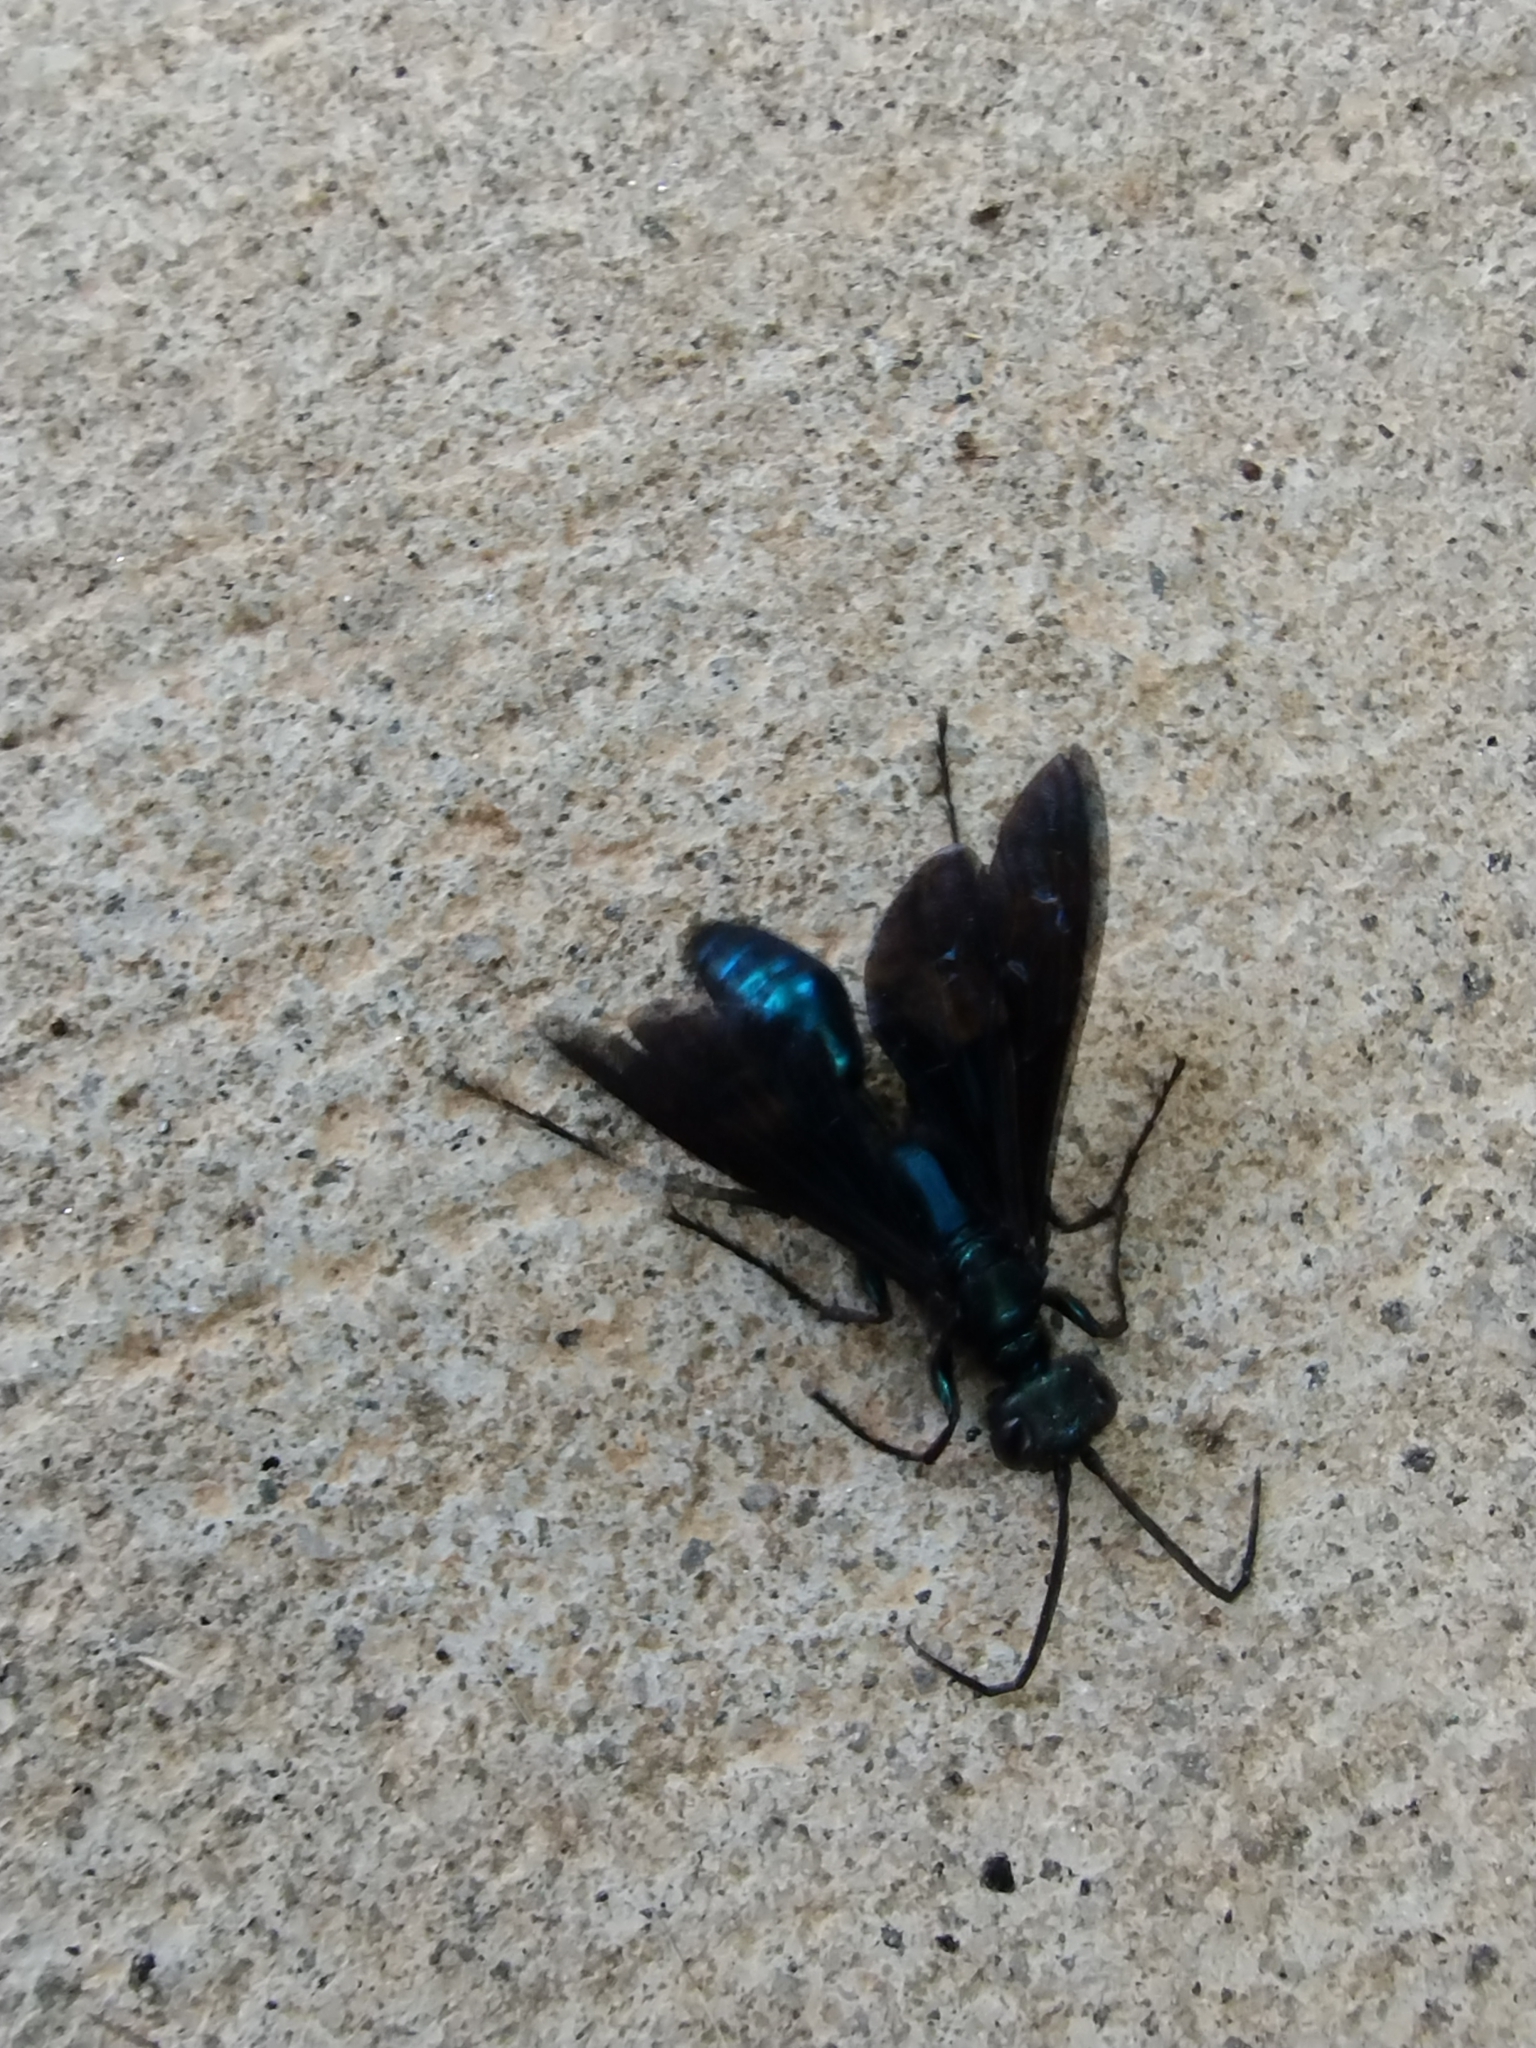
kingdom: Animalia
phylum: Arthropoda
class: Insecta
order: Hymenoptera
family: Sphecidae
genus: Chlorion
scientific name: Chlorion aerarium
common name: Steel-blue cricket hunter
